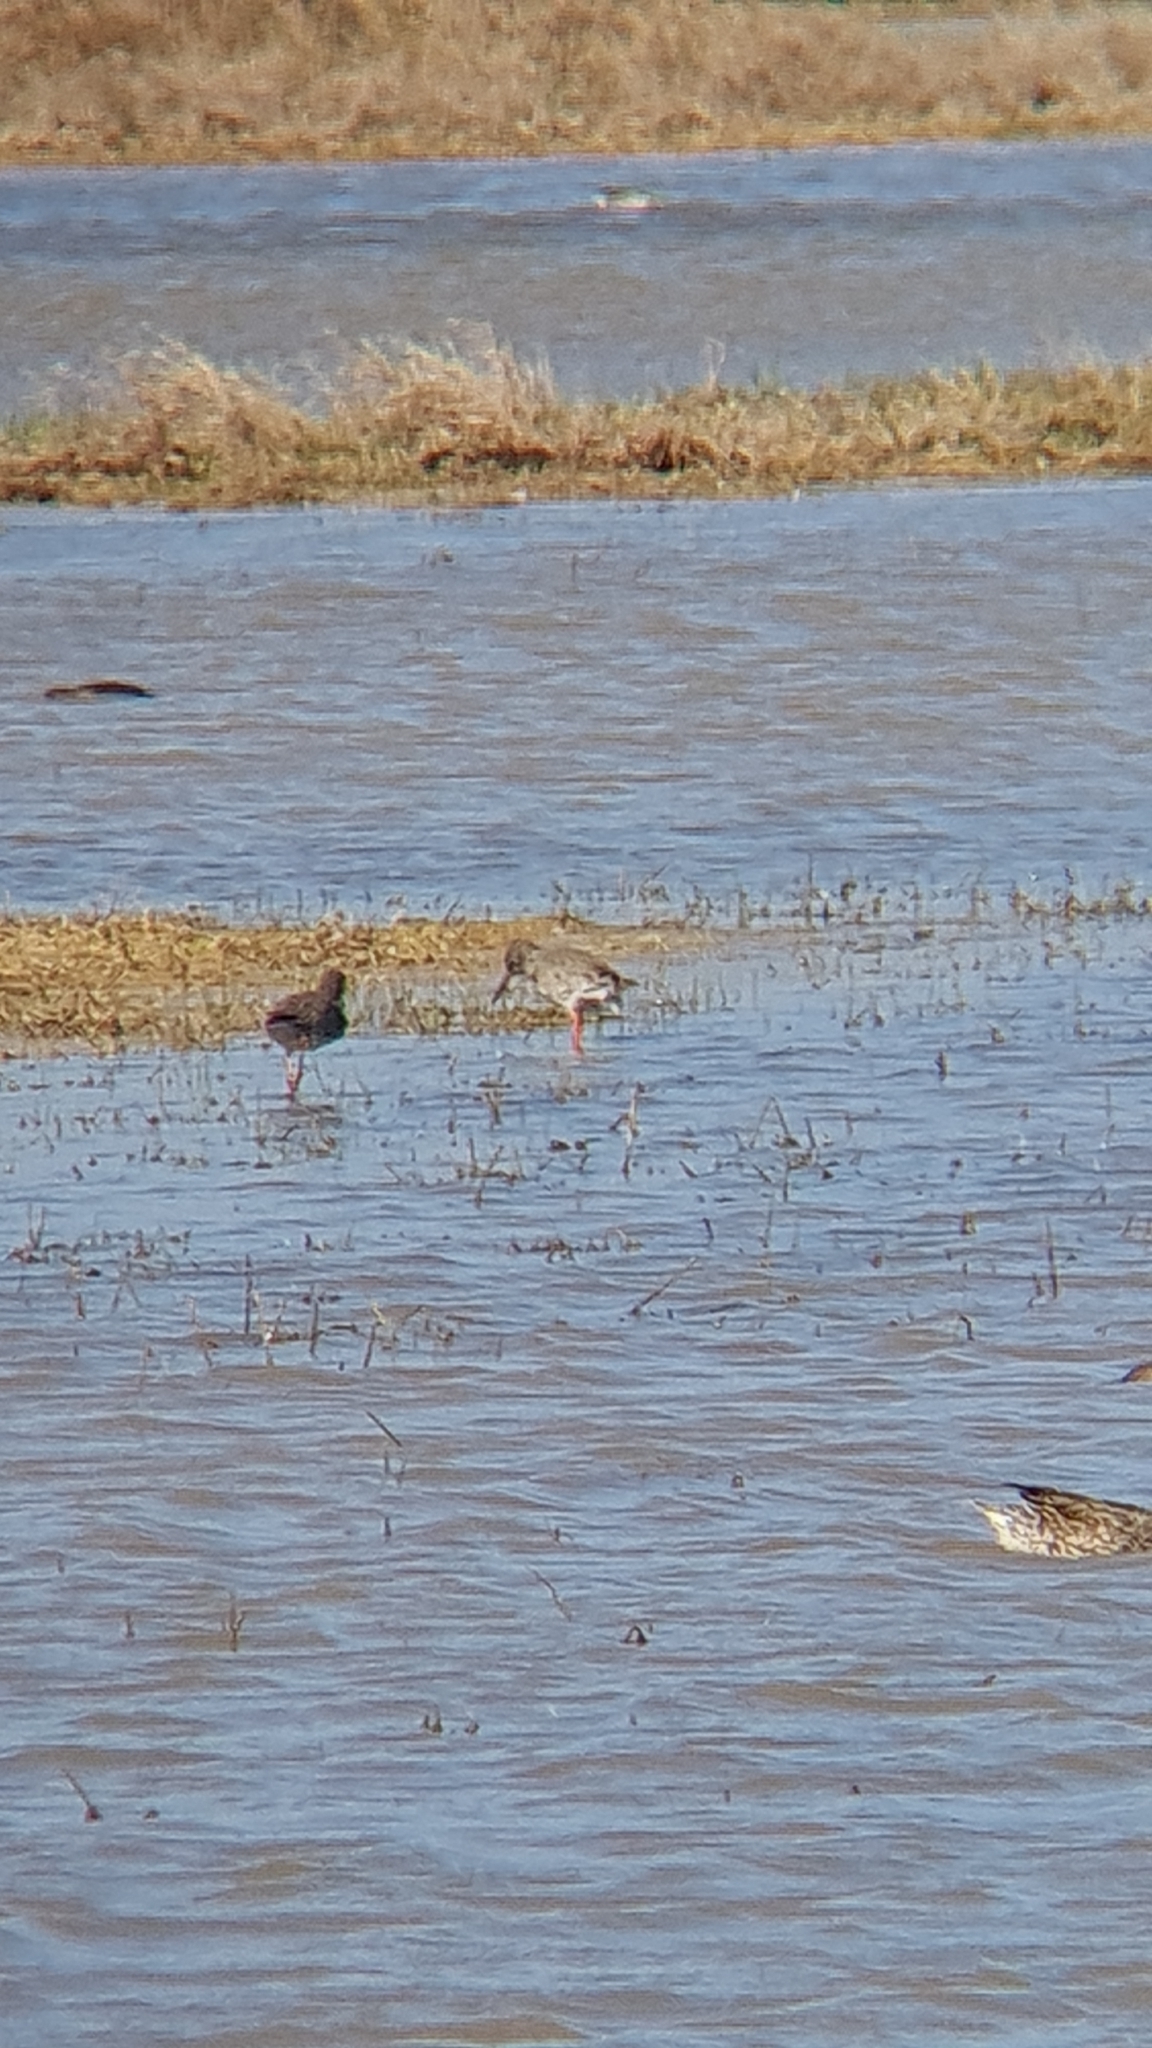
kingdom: Animalia
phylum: Chordata
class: Aves
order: Charadriiformes
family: Scolopacidae
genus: Tringa
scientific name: Tringa totanus
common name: Common redshank
